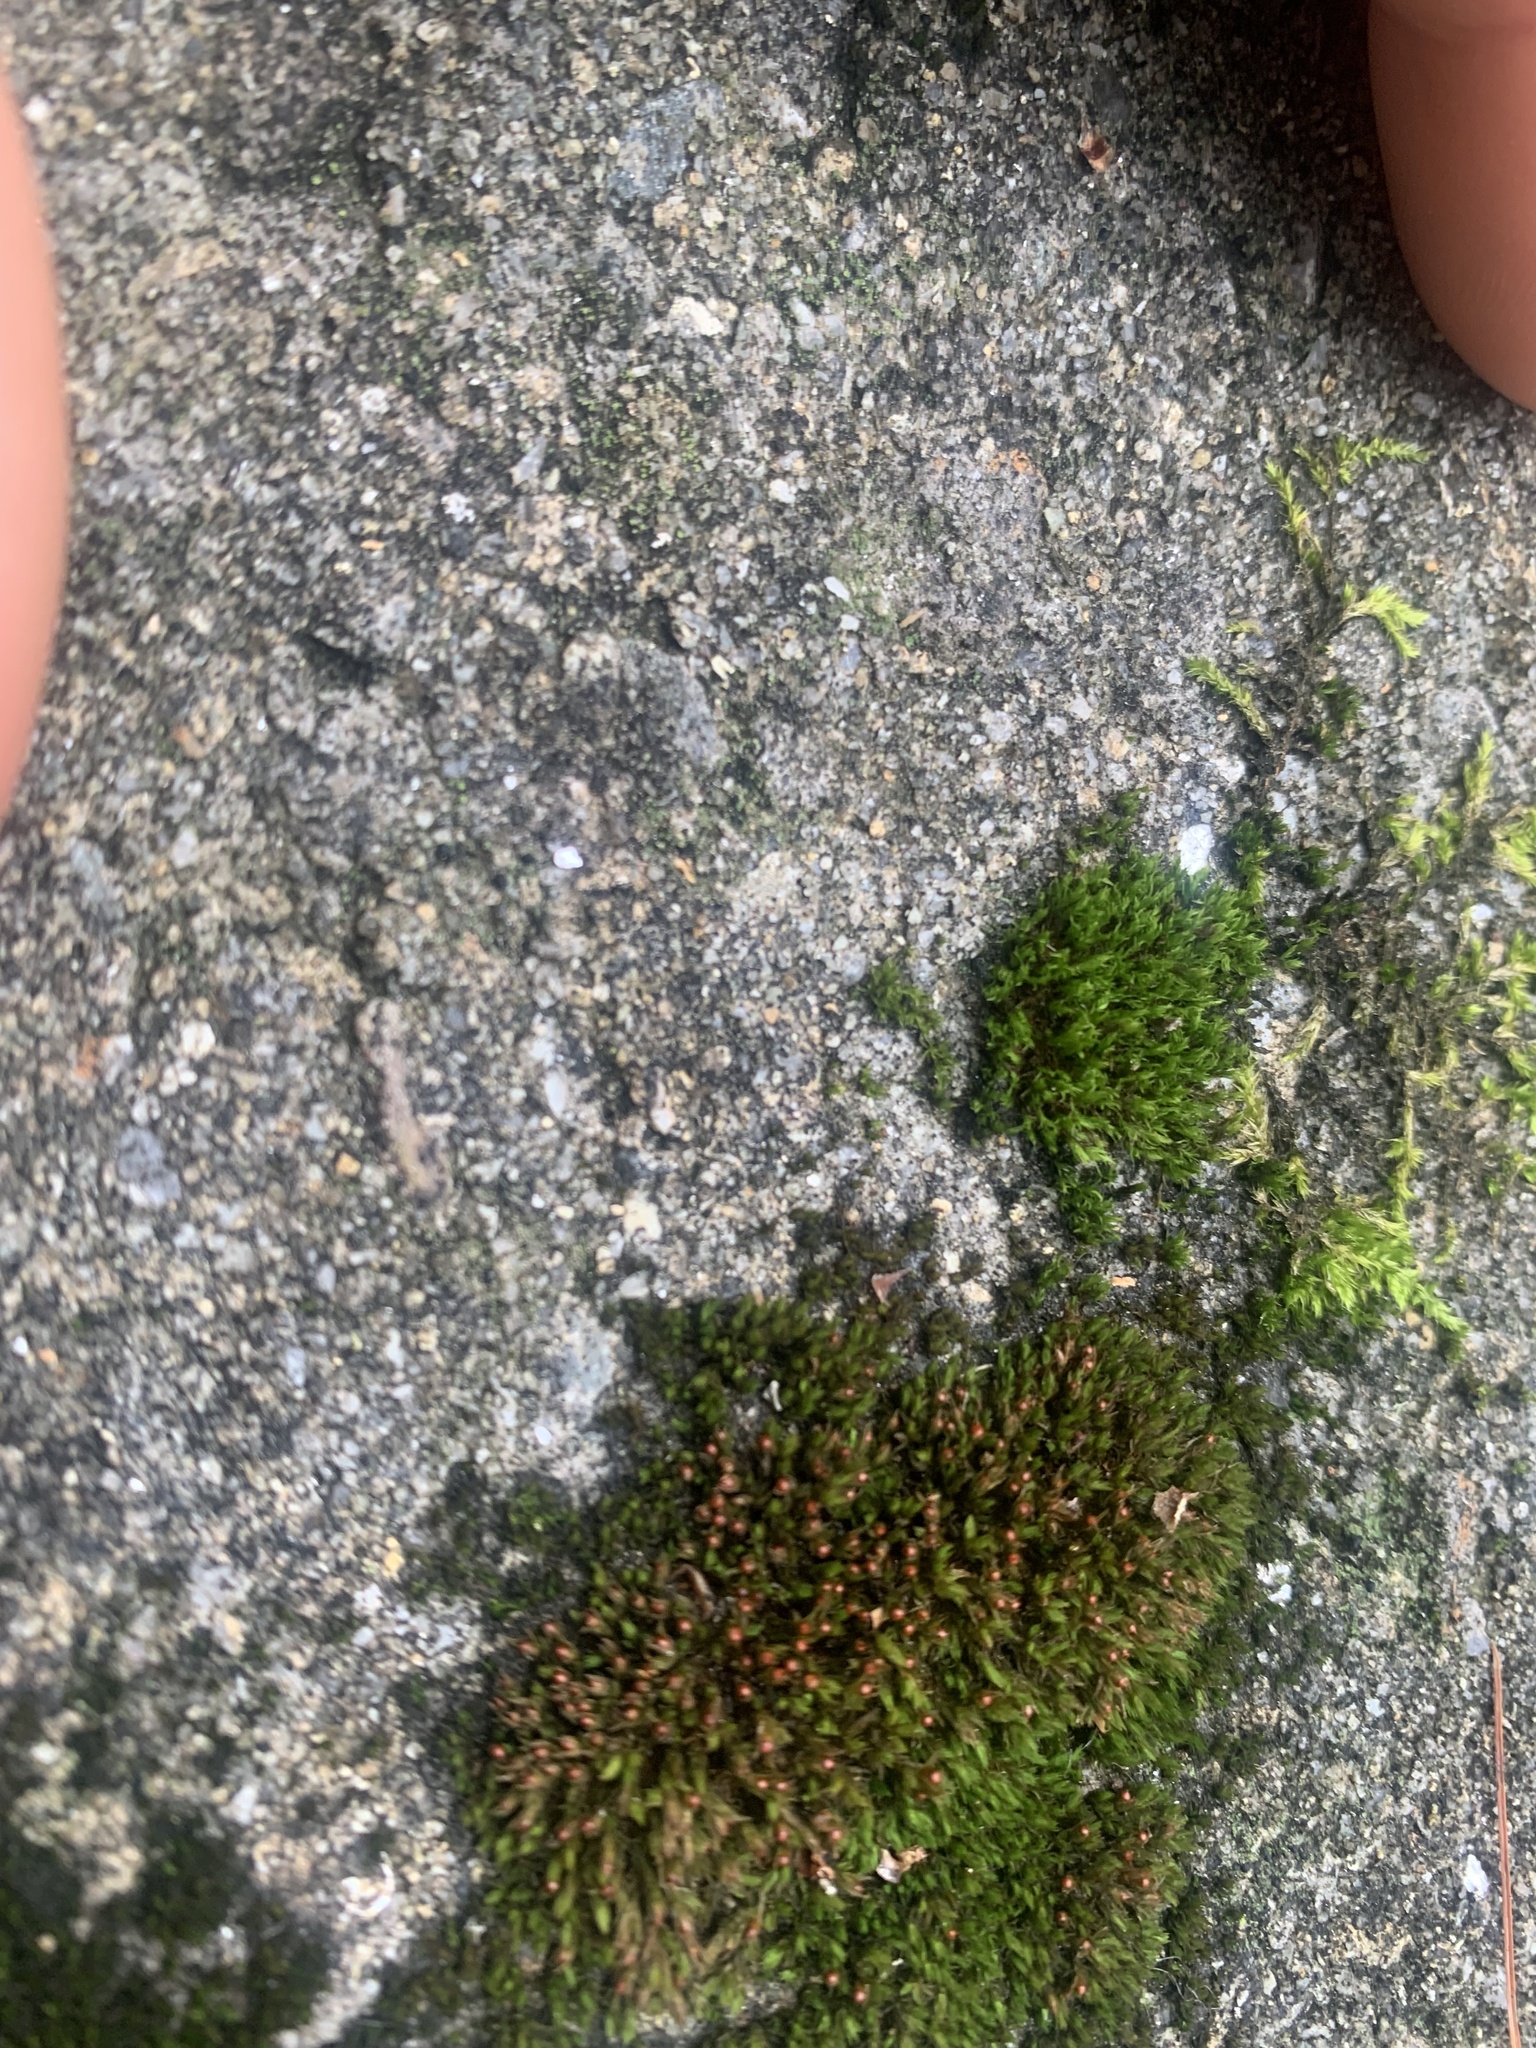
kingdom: Plantae
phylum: Bryophyta
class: Bryopsida
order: Grimmiales
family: Grimmiaceae
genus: Schistidium
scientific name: Schistidium apocarpum
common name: Radiate bloom moss
